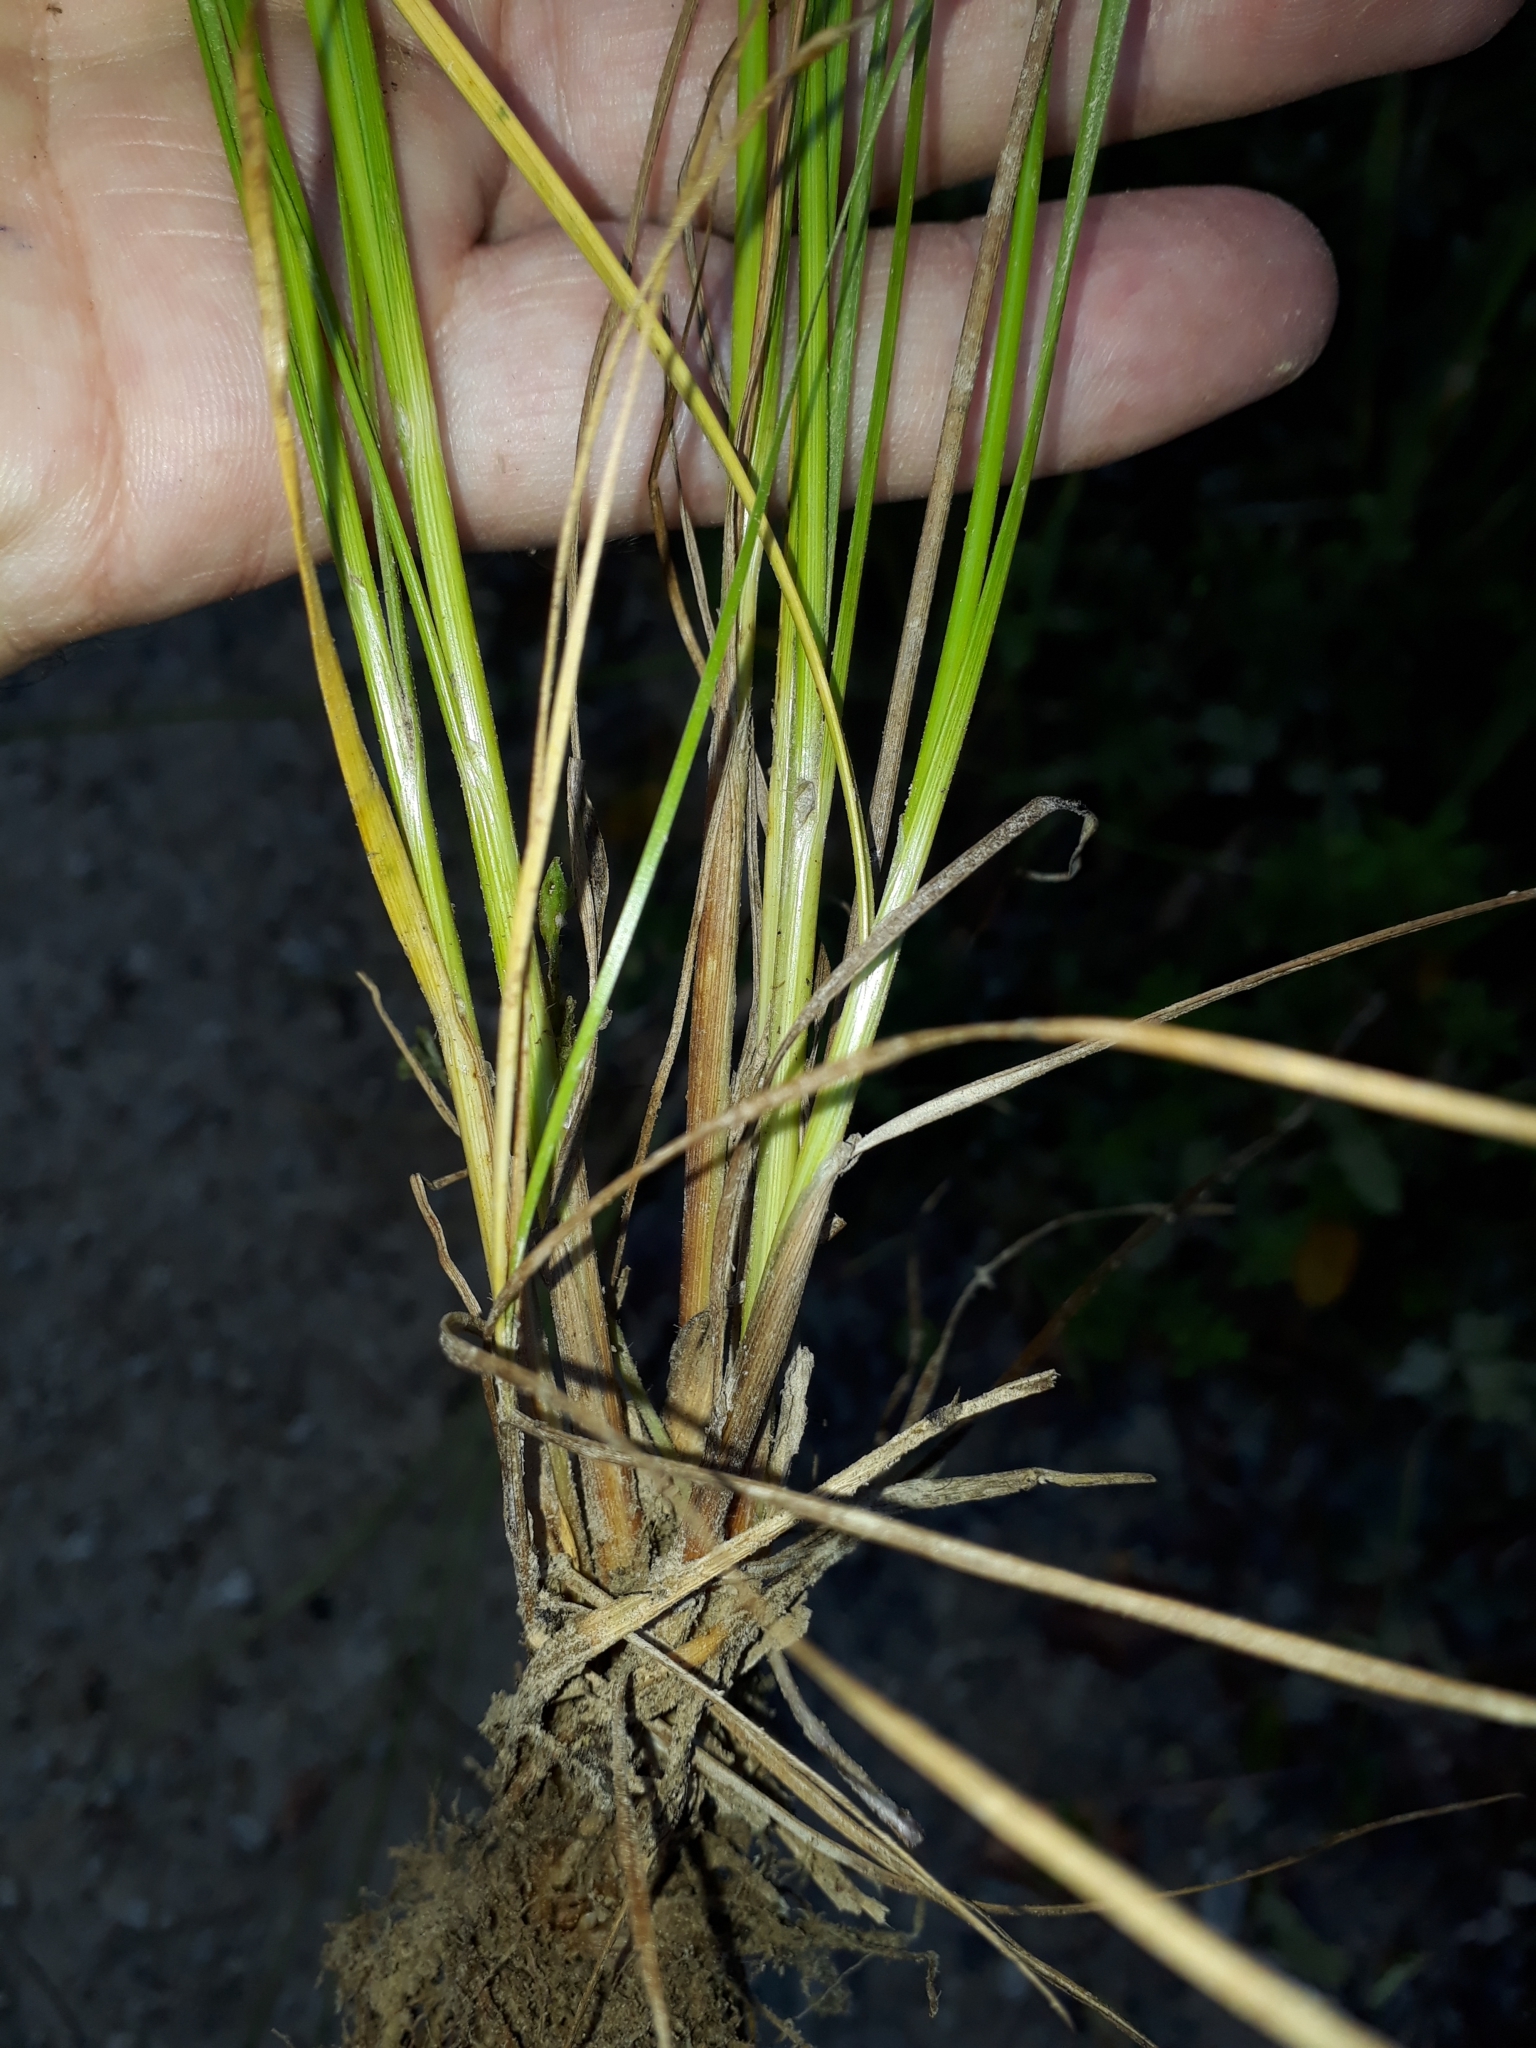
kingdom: Plantae
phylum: Tracheophyta
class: Liliopsida
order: Poales
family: Juncaceae
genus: Juncus
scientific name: Juncus anthelatus
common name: Giant path rush
